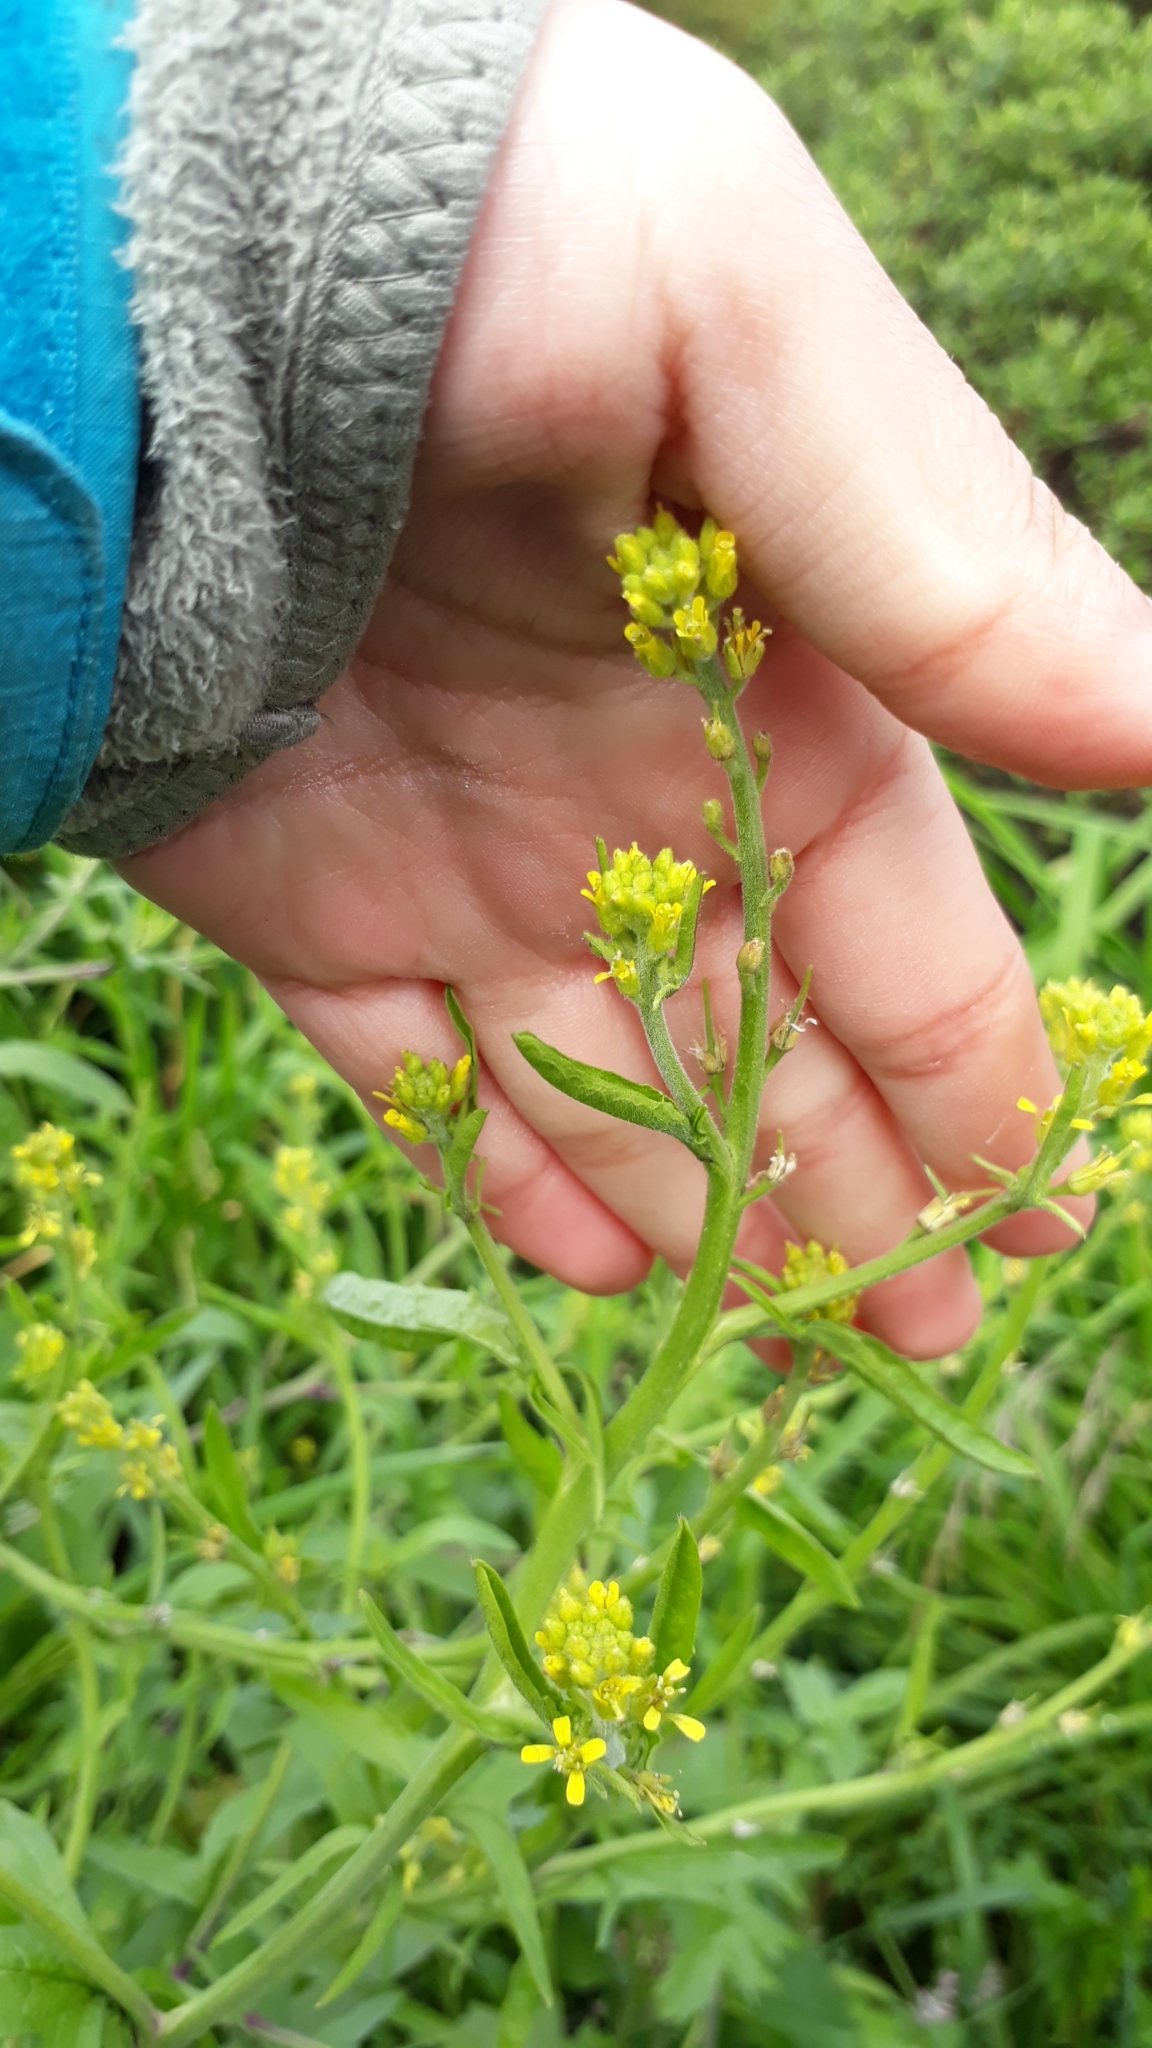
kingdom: Plantae
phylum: Tracheophyta
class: Magnoliopsida
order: Brassicales
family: Brassicaceae
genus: Sisymbrium
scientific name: Sisymbrium officinale
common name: Hedge mustard
